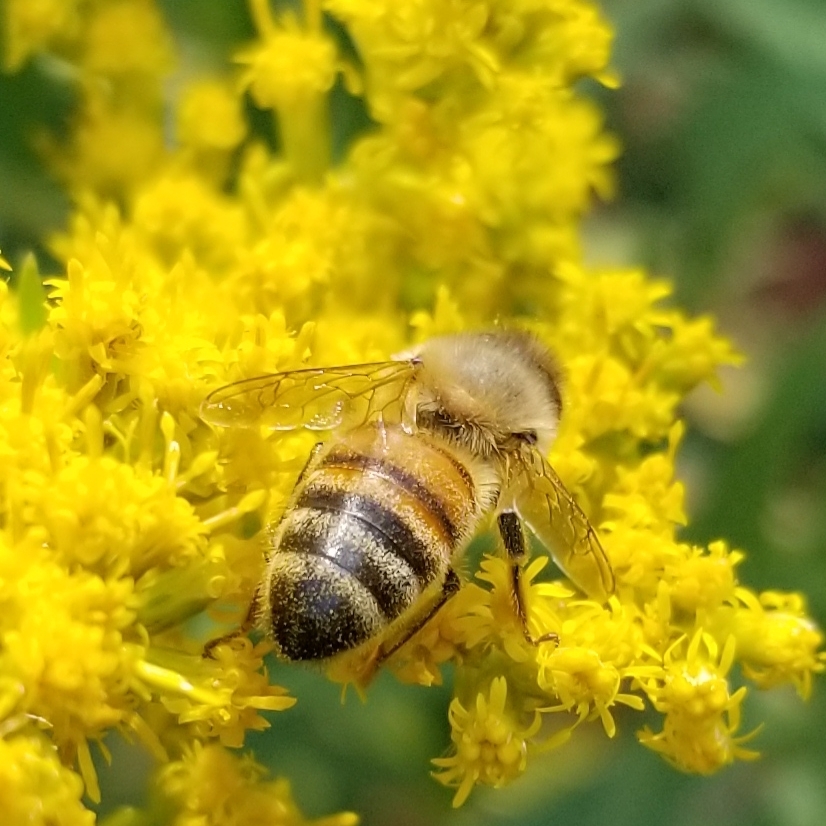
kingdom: Animalia
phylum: Arthropoda
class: Insecta
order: Hymenoptera
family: Apidae
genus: Apis
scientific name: Apis mellifera
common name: Honey bee
